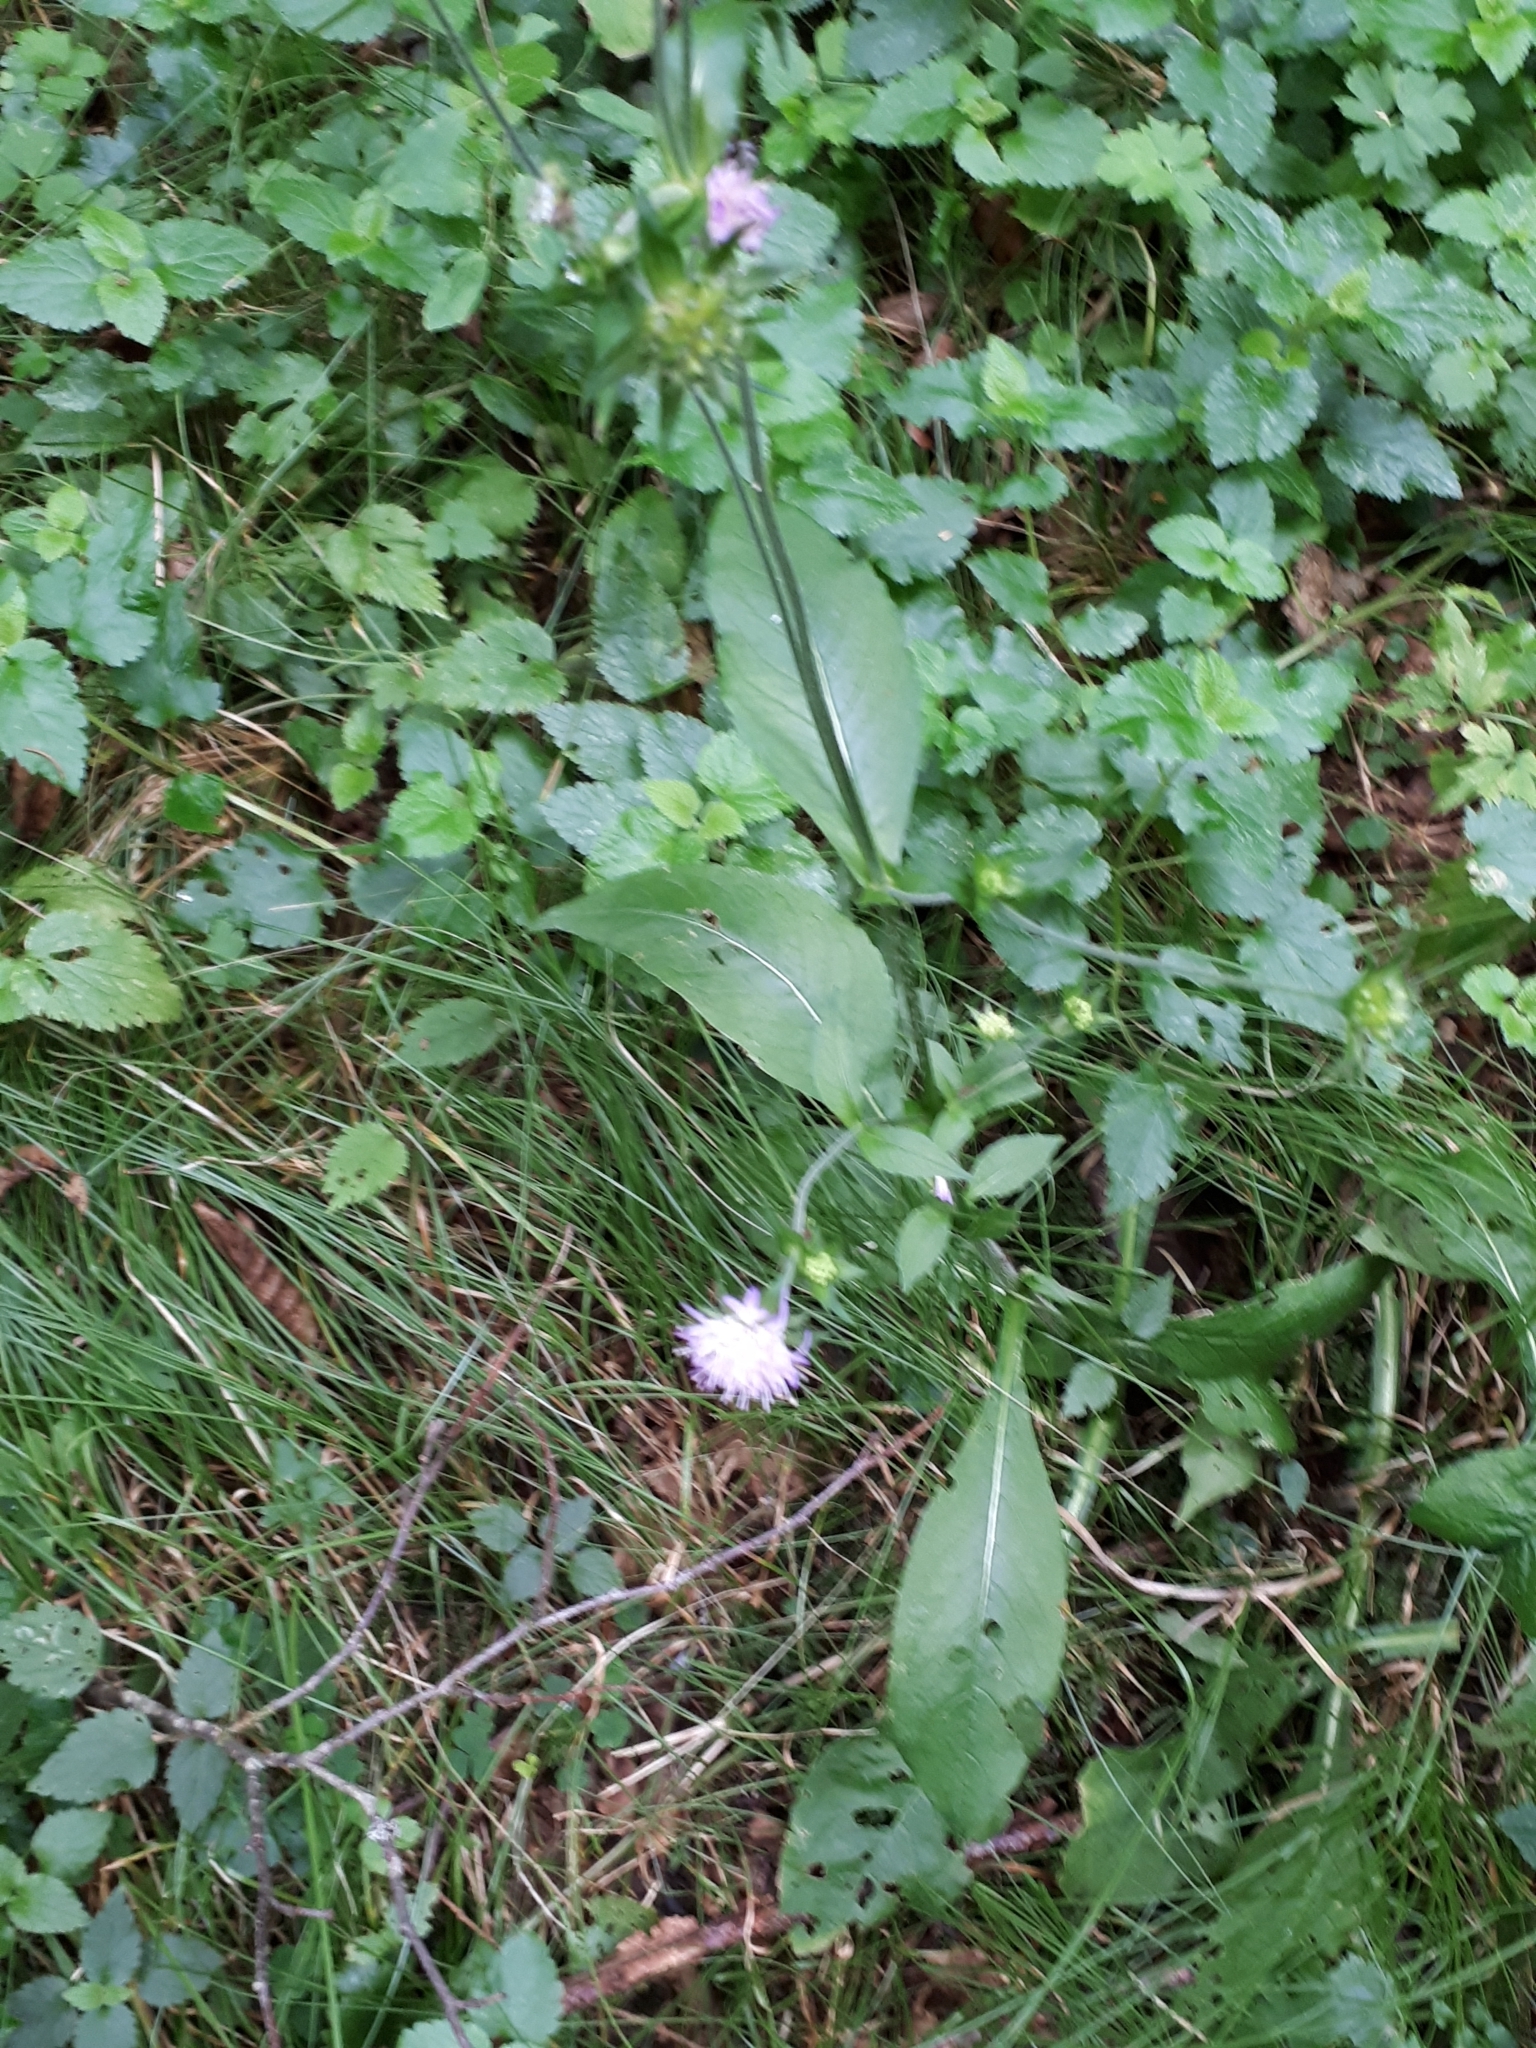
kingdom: Plantae
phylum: Tracheophyta
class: Magnoliopsida
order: Dipsacales
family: Caprifoliaceae
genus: Knautia
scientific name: Knautia dipsacifolia
